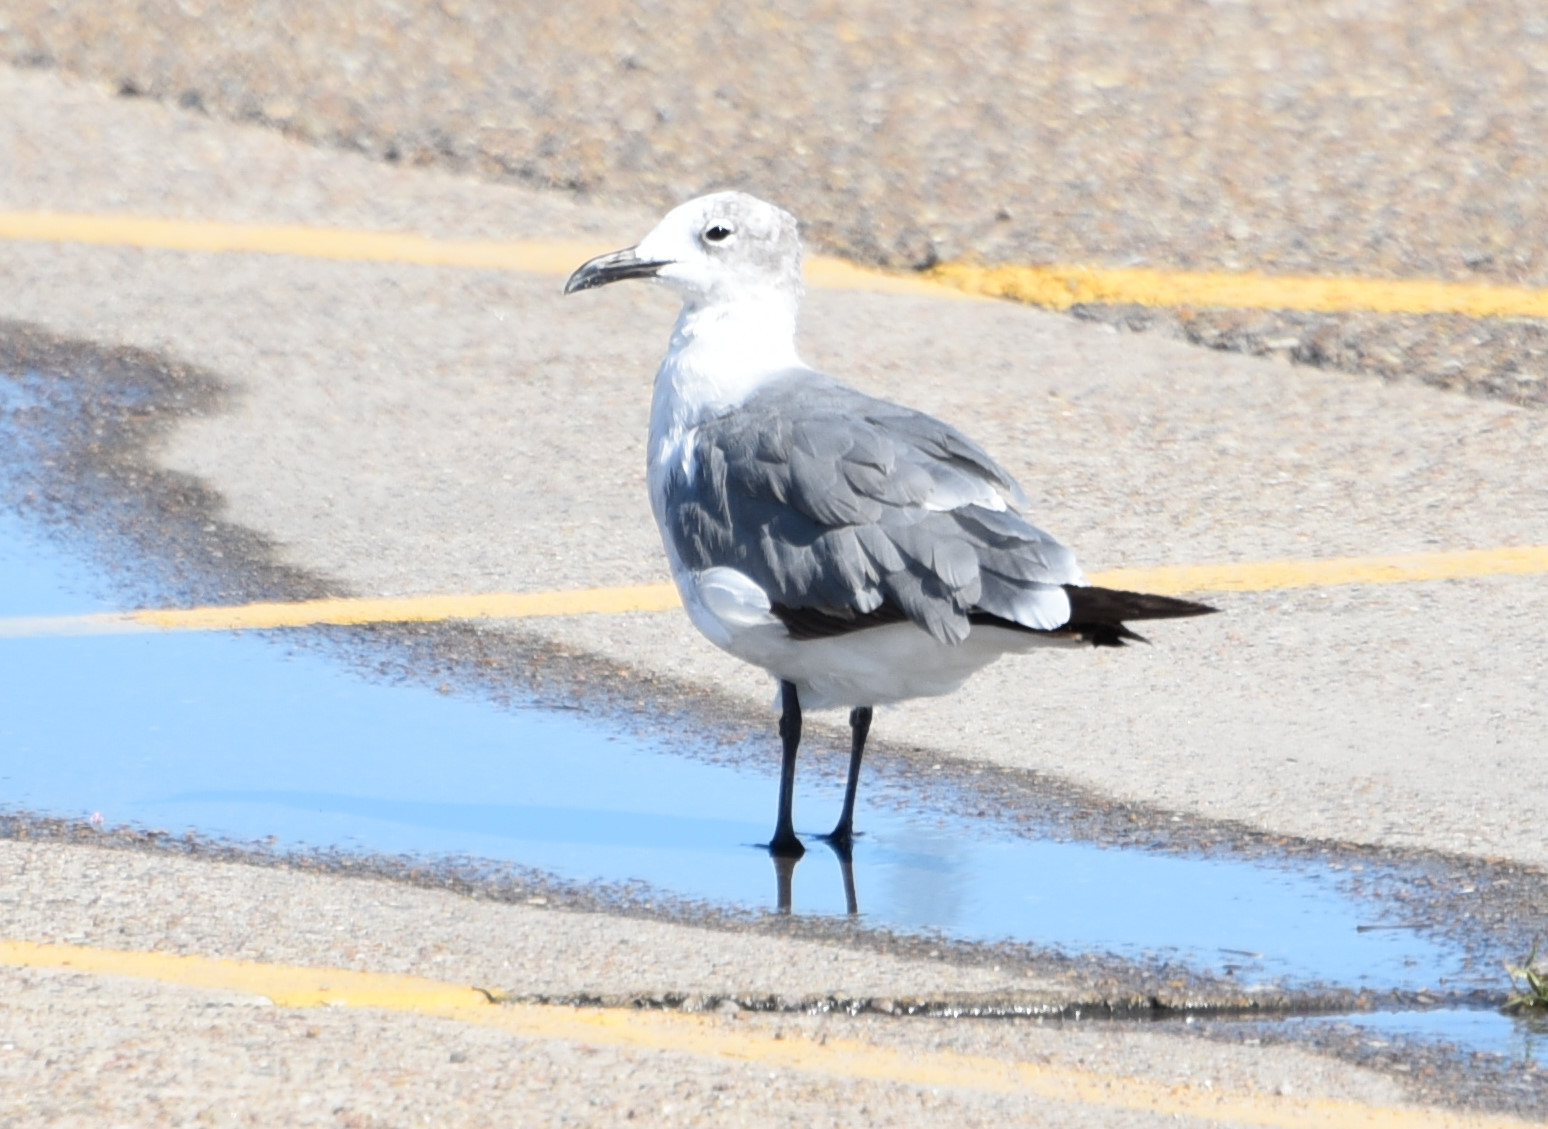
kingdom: Animalia
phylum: Chordata
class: Aves
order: Charadriiformes
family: Laridae
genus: Leucophaeus
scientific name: Leucophaeus atricilla
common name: Laughing gull
